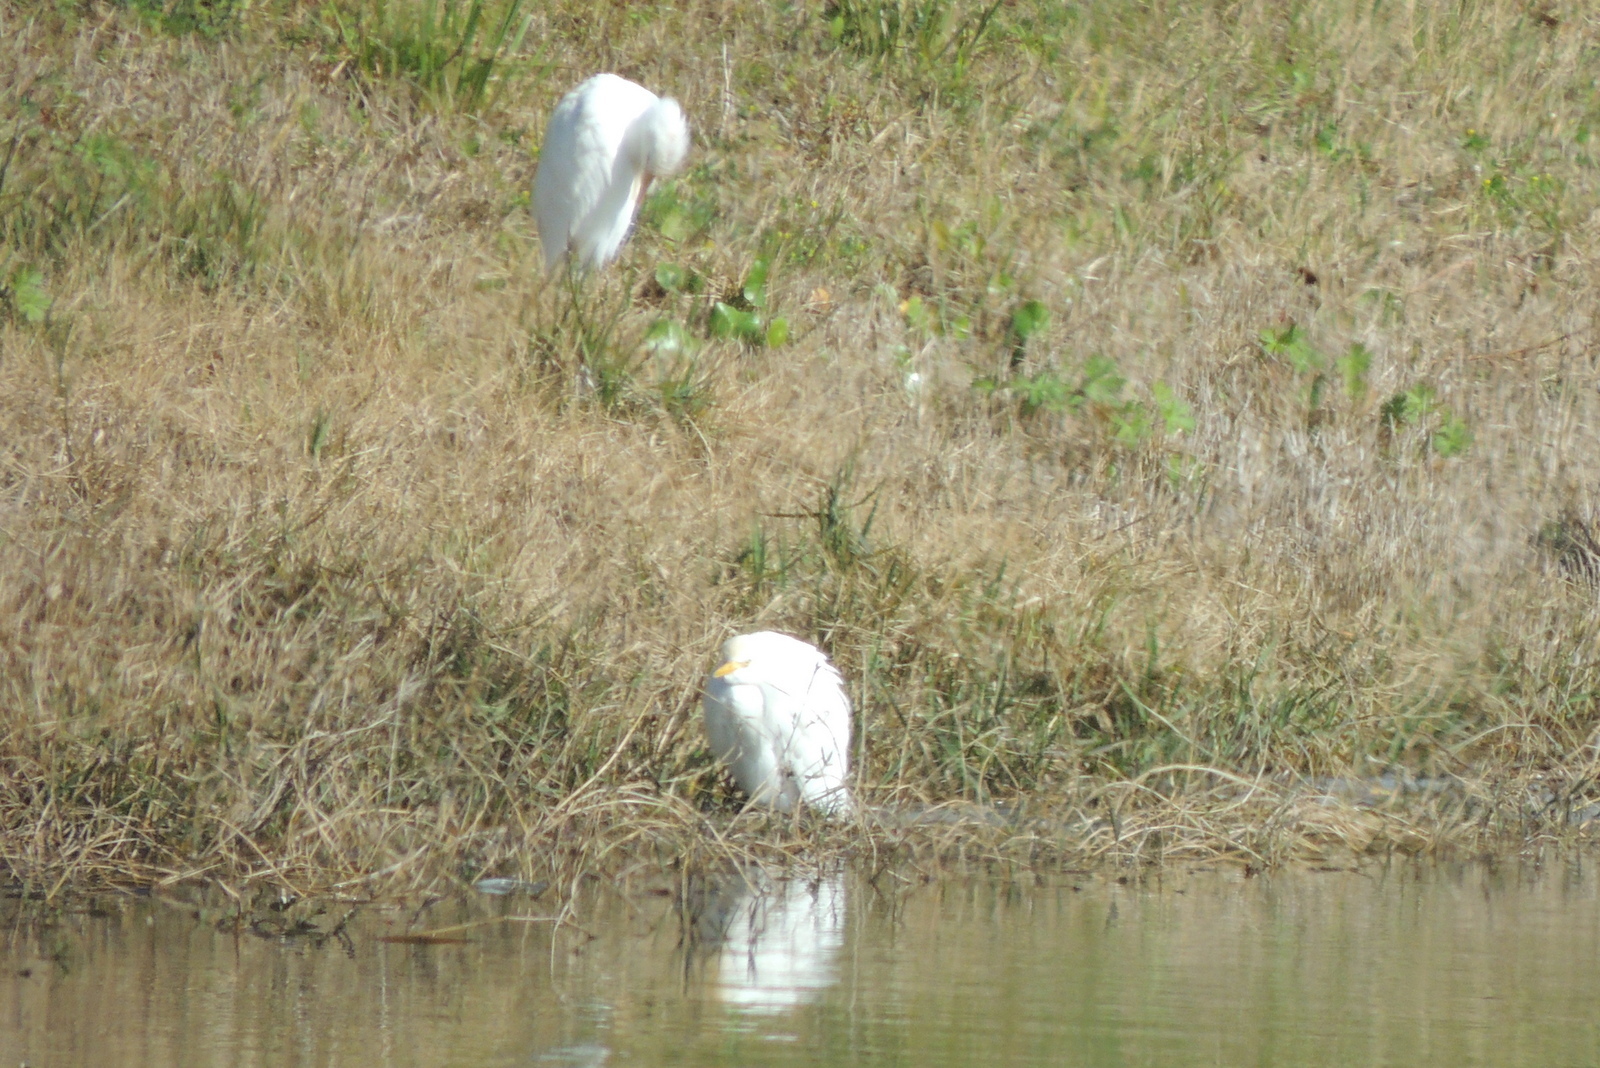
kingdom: Animalia
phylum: Chordata
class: Aves
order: Pelecaniformes
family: Ardeidae
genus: Bubulcus
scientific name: Bubulcus ibis
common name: Cattle egret
